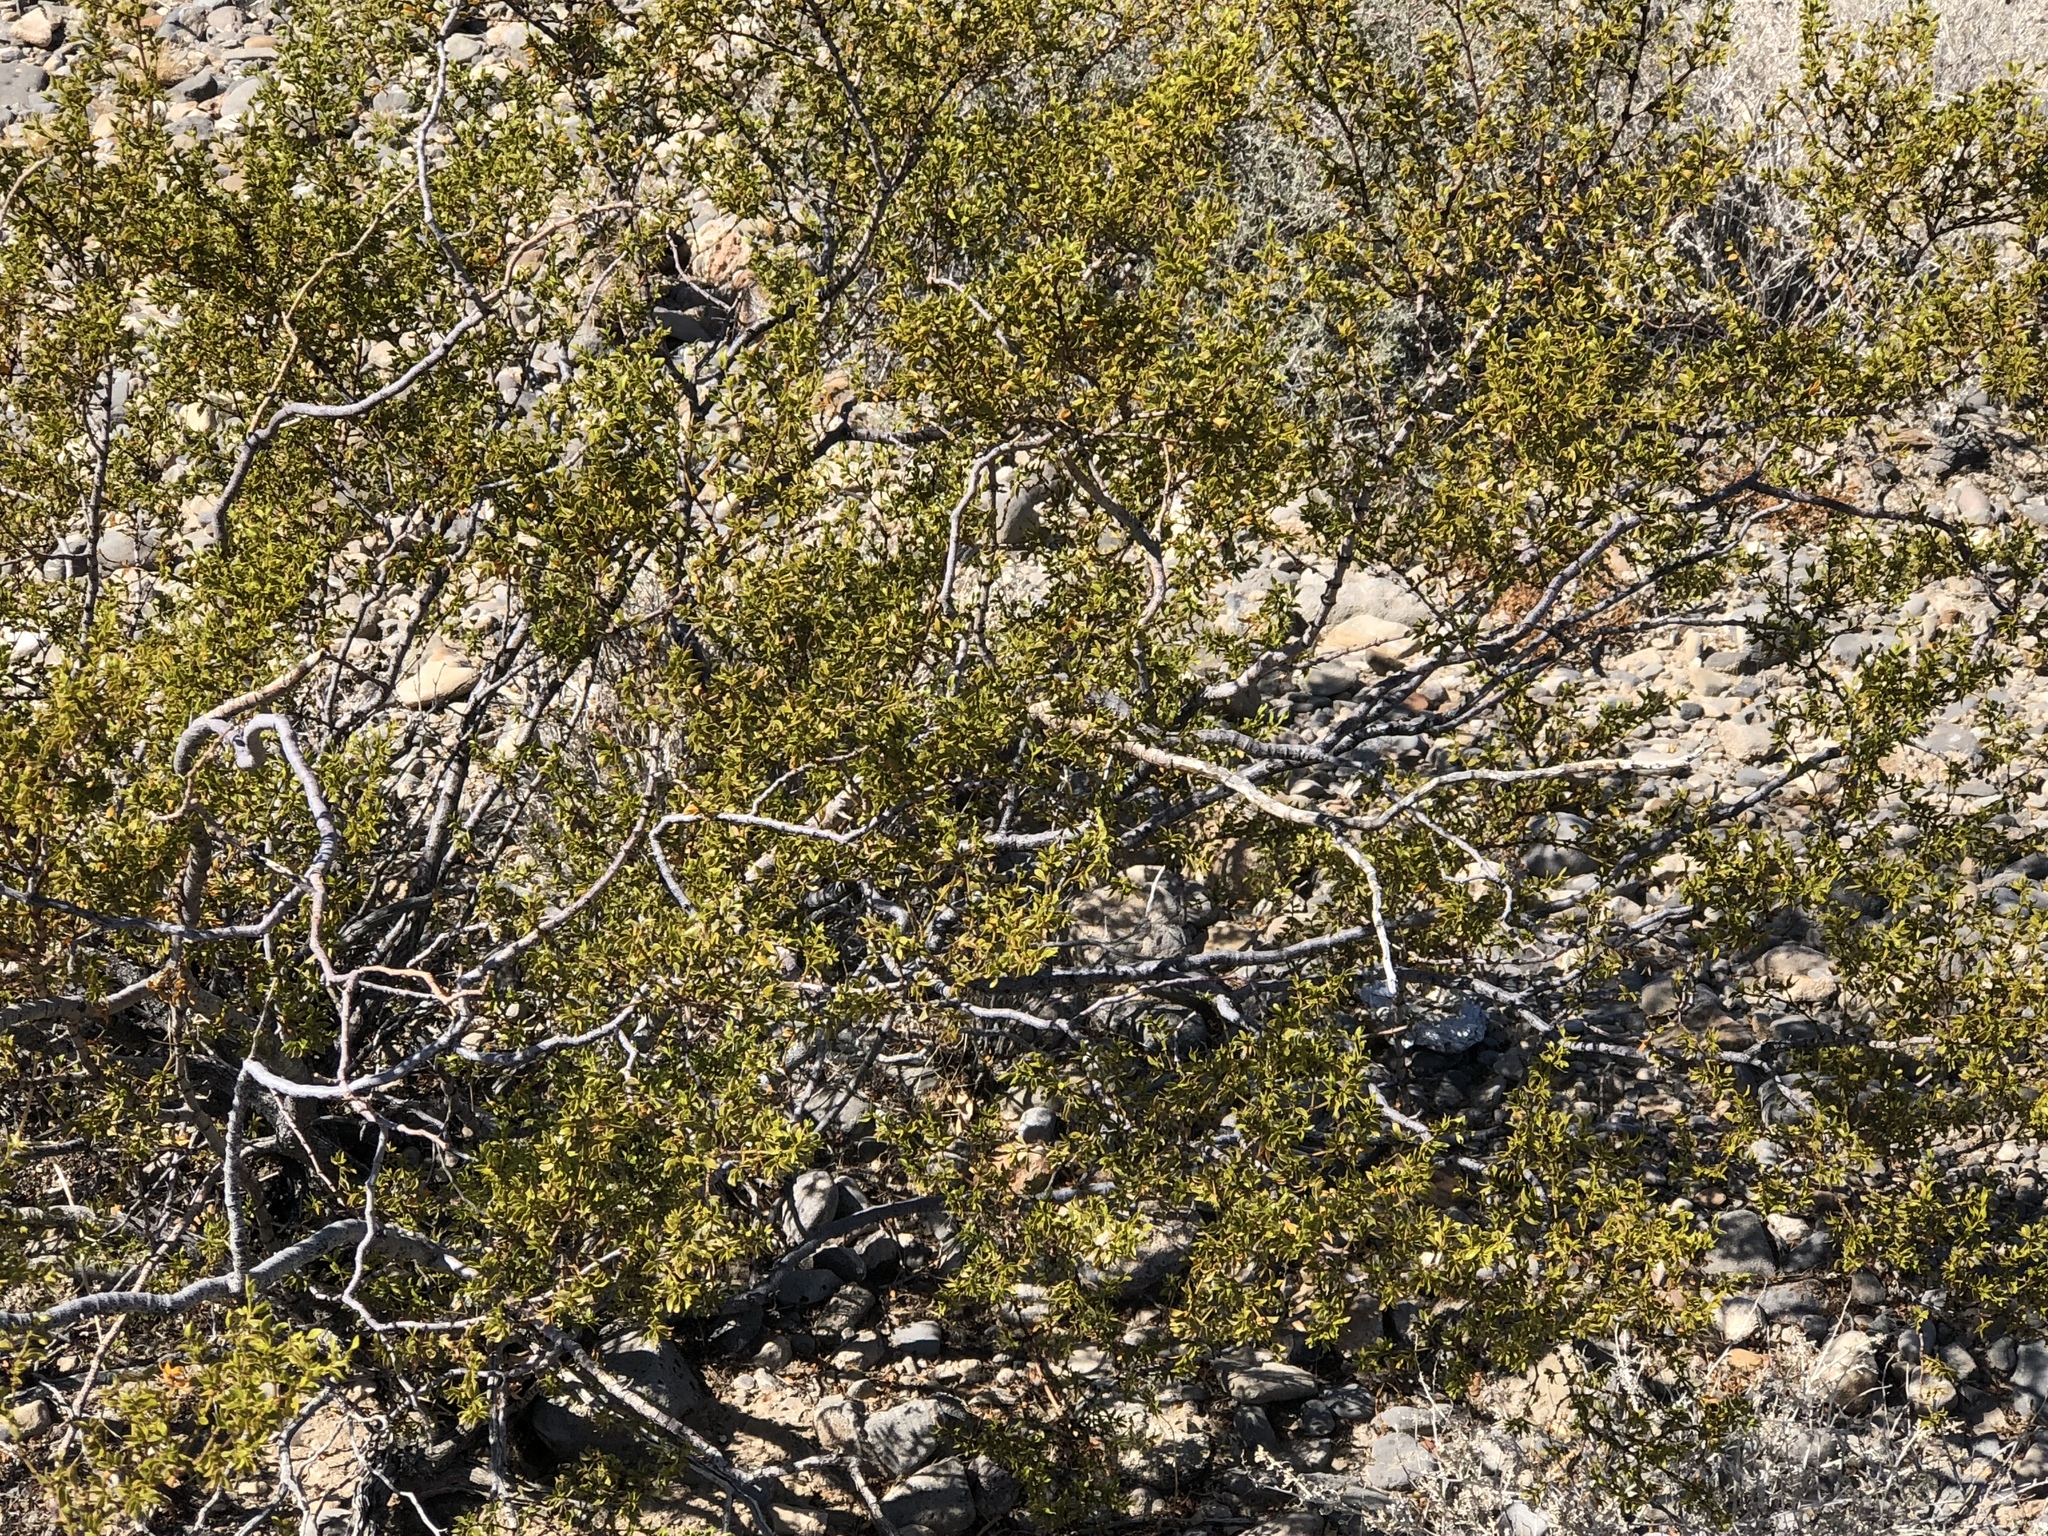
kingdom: Plantae
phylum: Tracheophyta
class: Magnoliopsida
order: Zygophyllales
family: Zygophyllaceae
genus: Larrea
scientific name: Larrea tridentata
